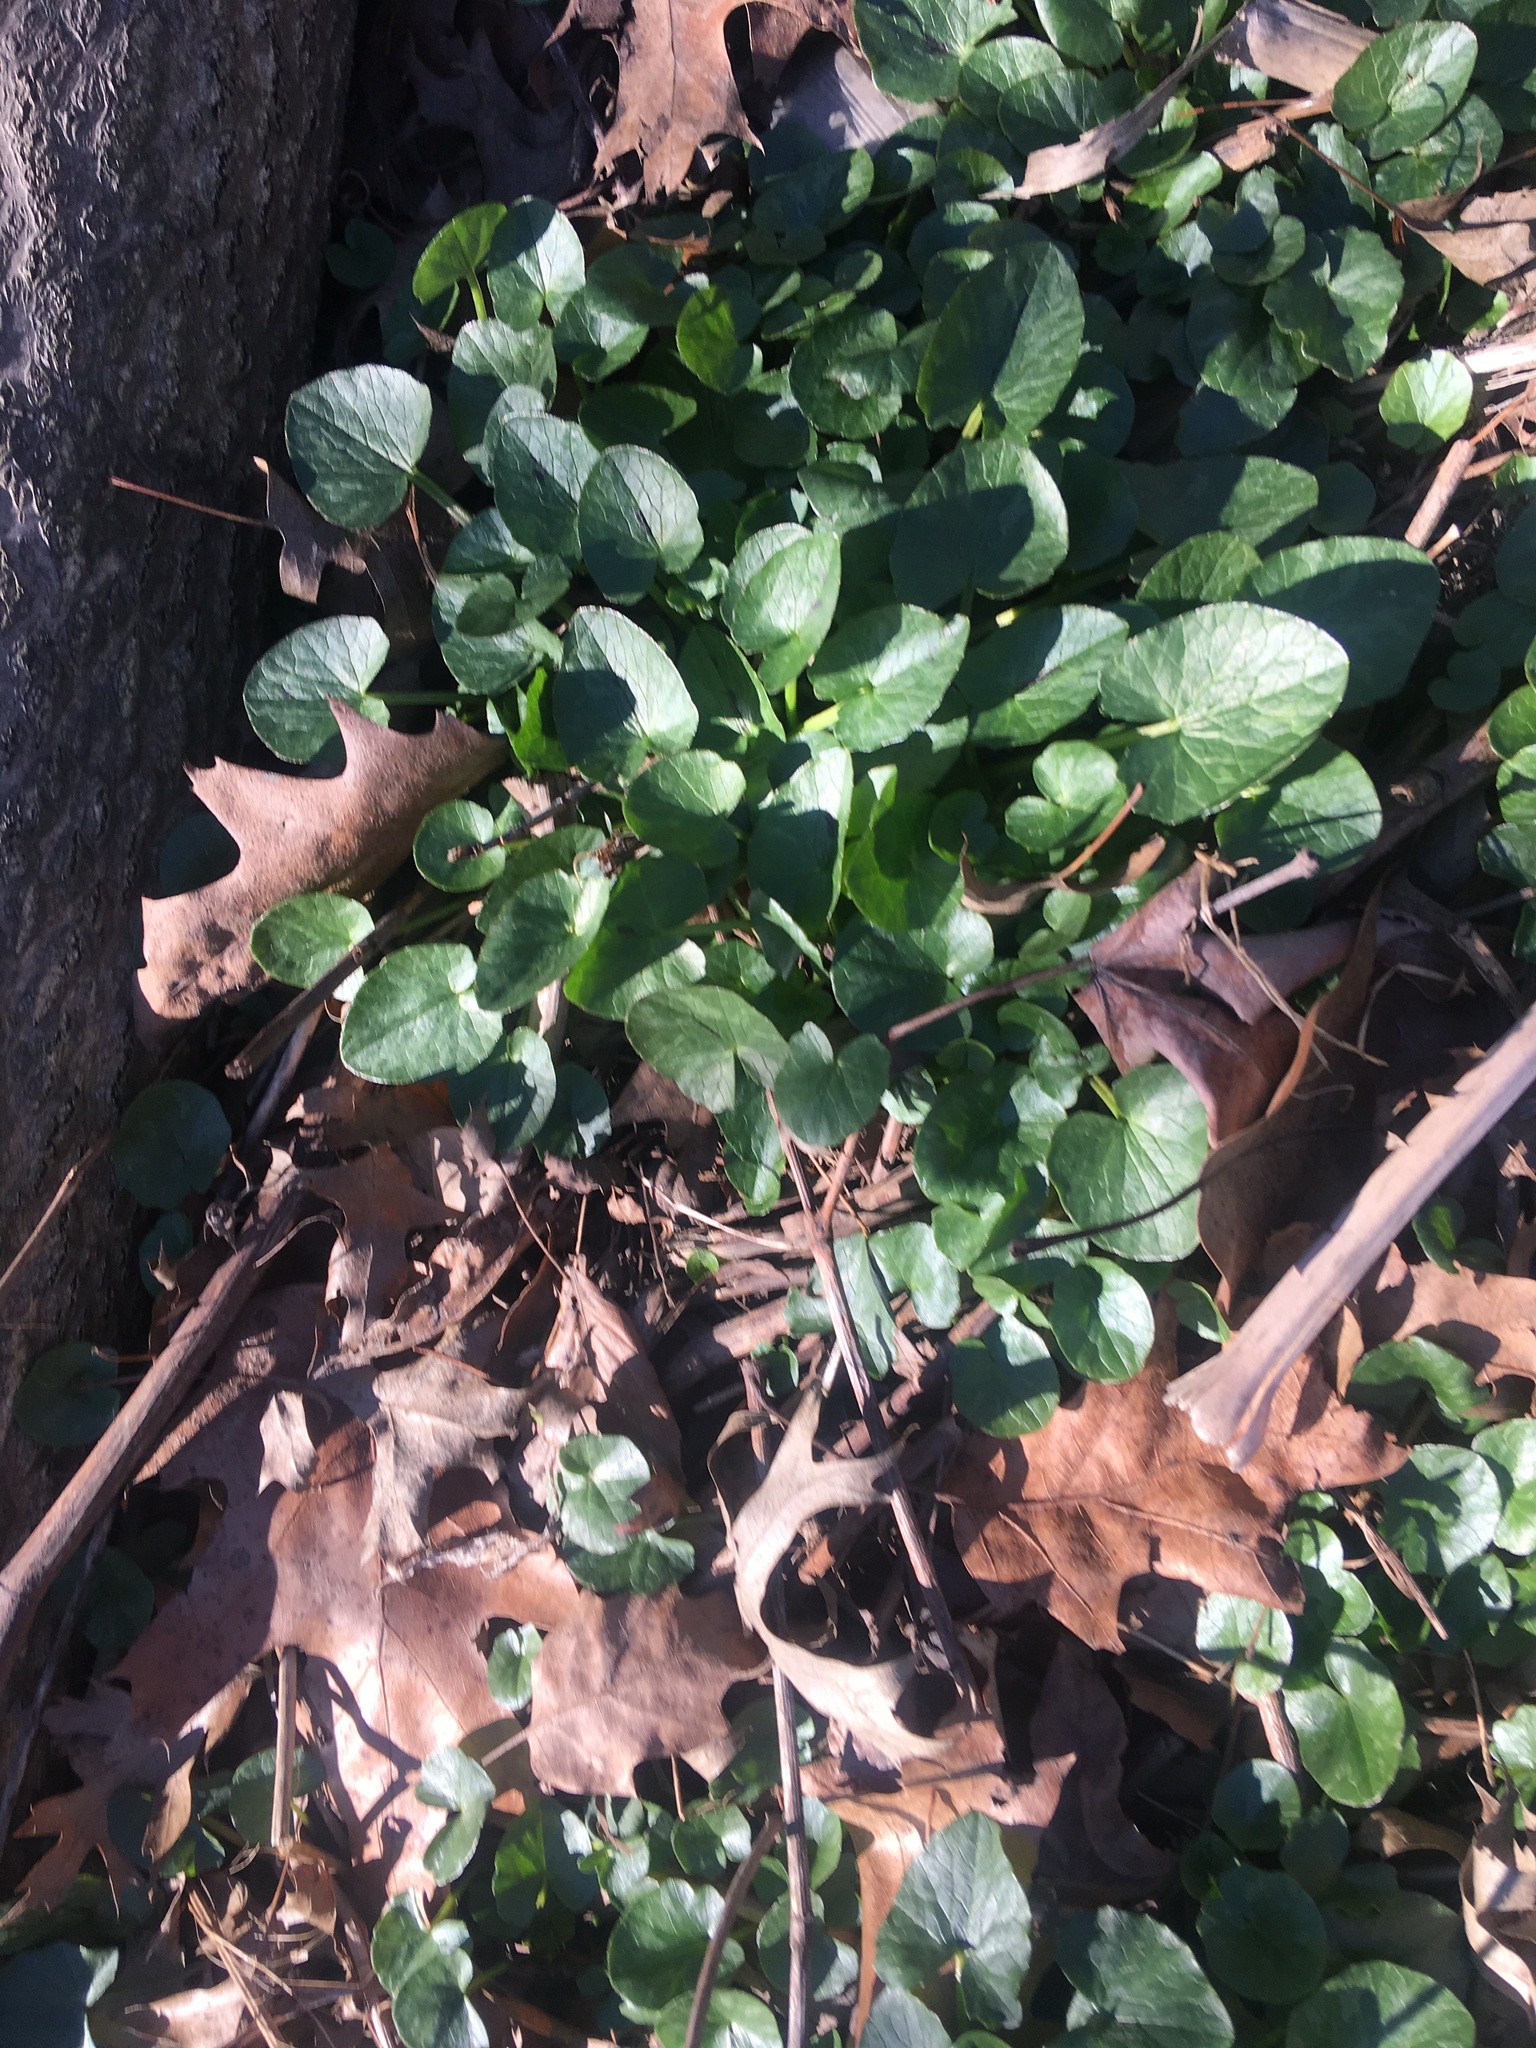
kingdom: Plantae
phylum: Tracheophyta
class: Magnoliopsida
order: Ranunculales
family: Ranunculaceae
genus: Ficaria
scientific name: Ficaria verna
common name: Lesser celandine
